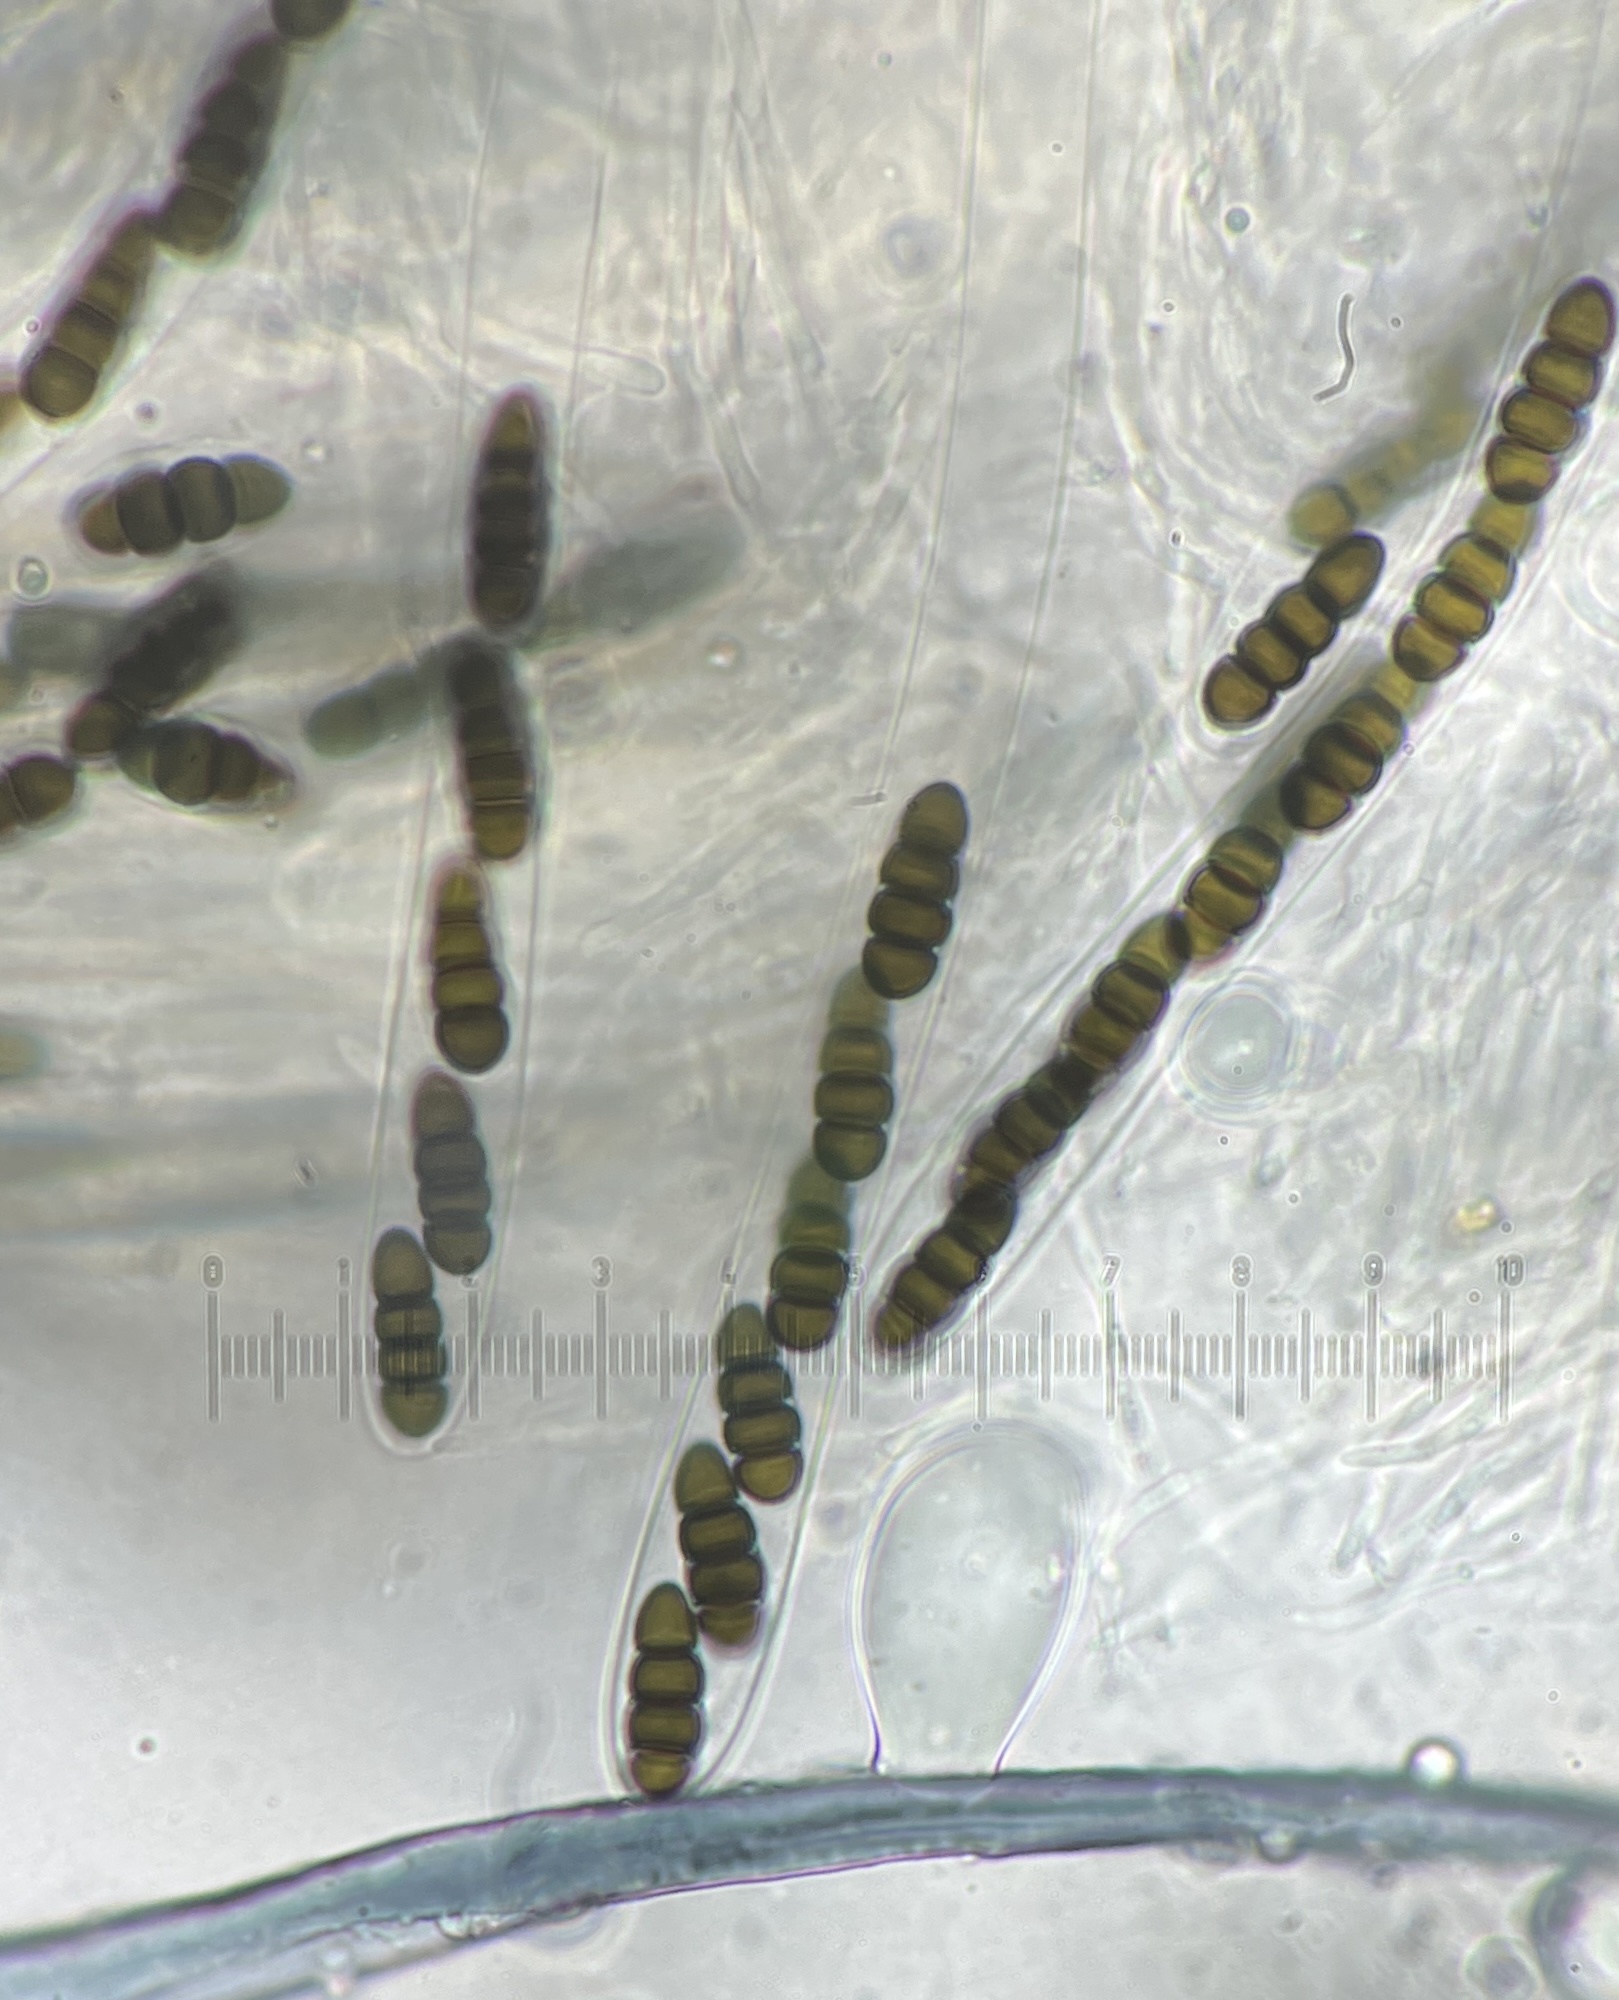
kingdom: Fungi
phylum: Ascomycota
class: Dothideomycetes
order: Pleosporales
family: Sporormiaceae
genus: Sporormiella
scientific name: Sporormiella pulchella
